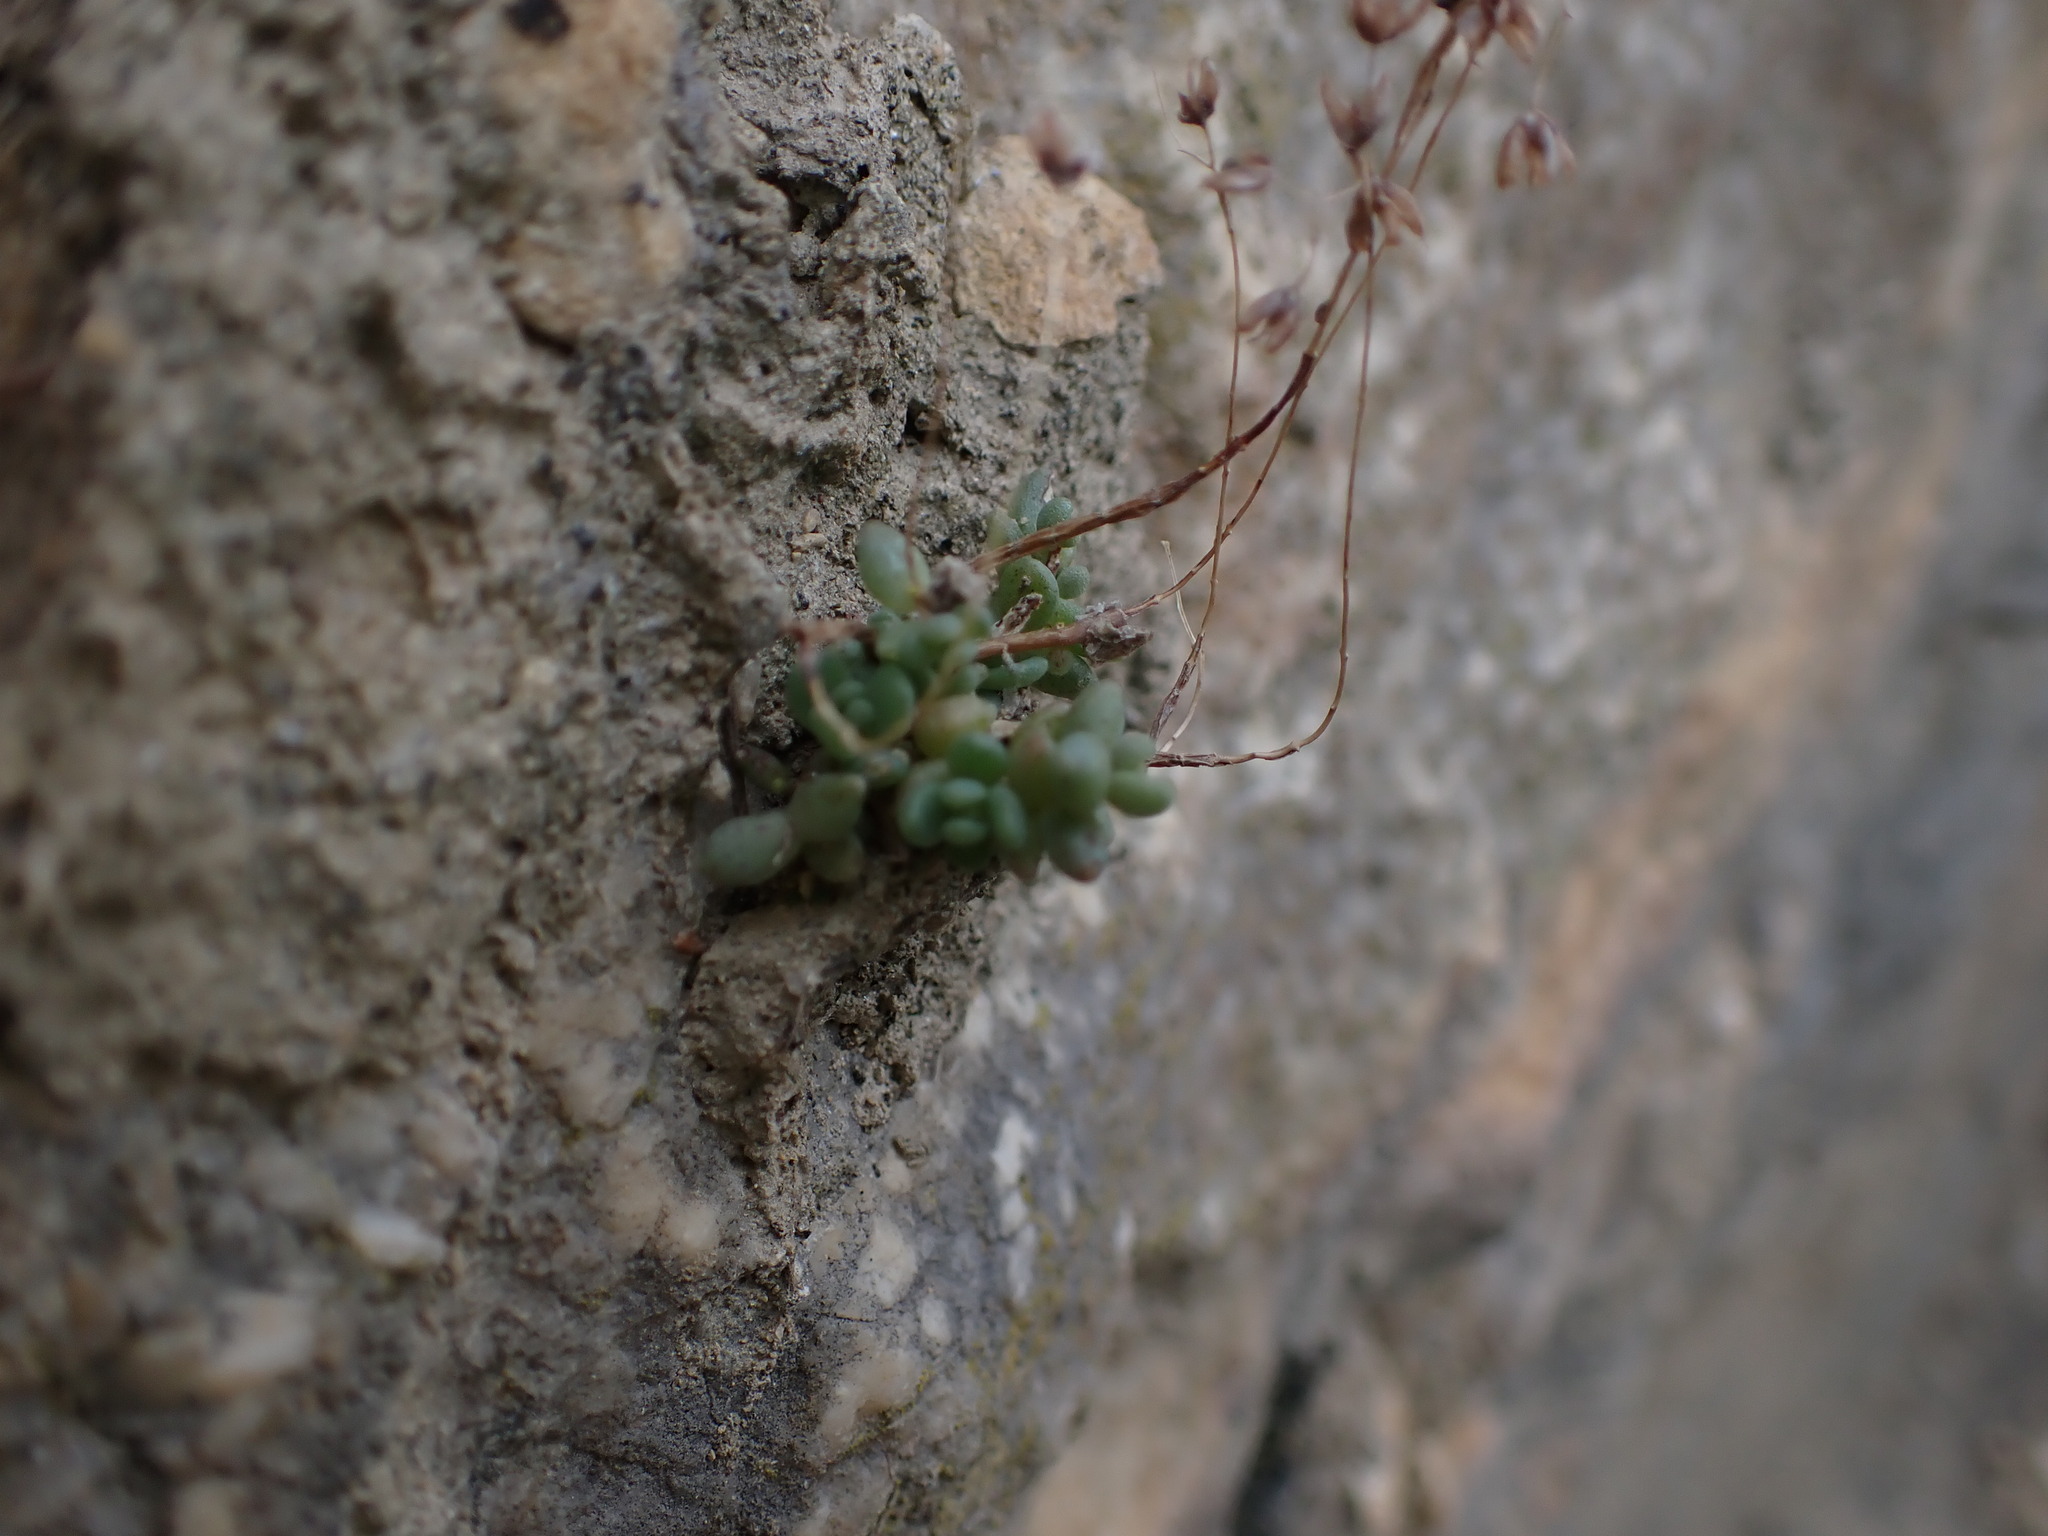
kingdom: Plantae
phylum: Tracheophyta
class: Magnoliopsida
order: Saxifragales
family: Crassulaceae
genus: Sedum
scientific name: Sedum dasyphyllum
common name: Thick-leaf stonecrop
